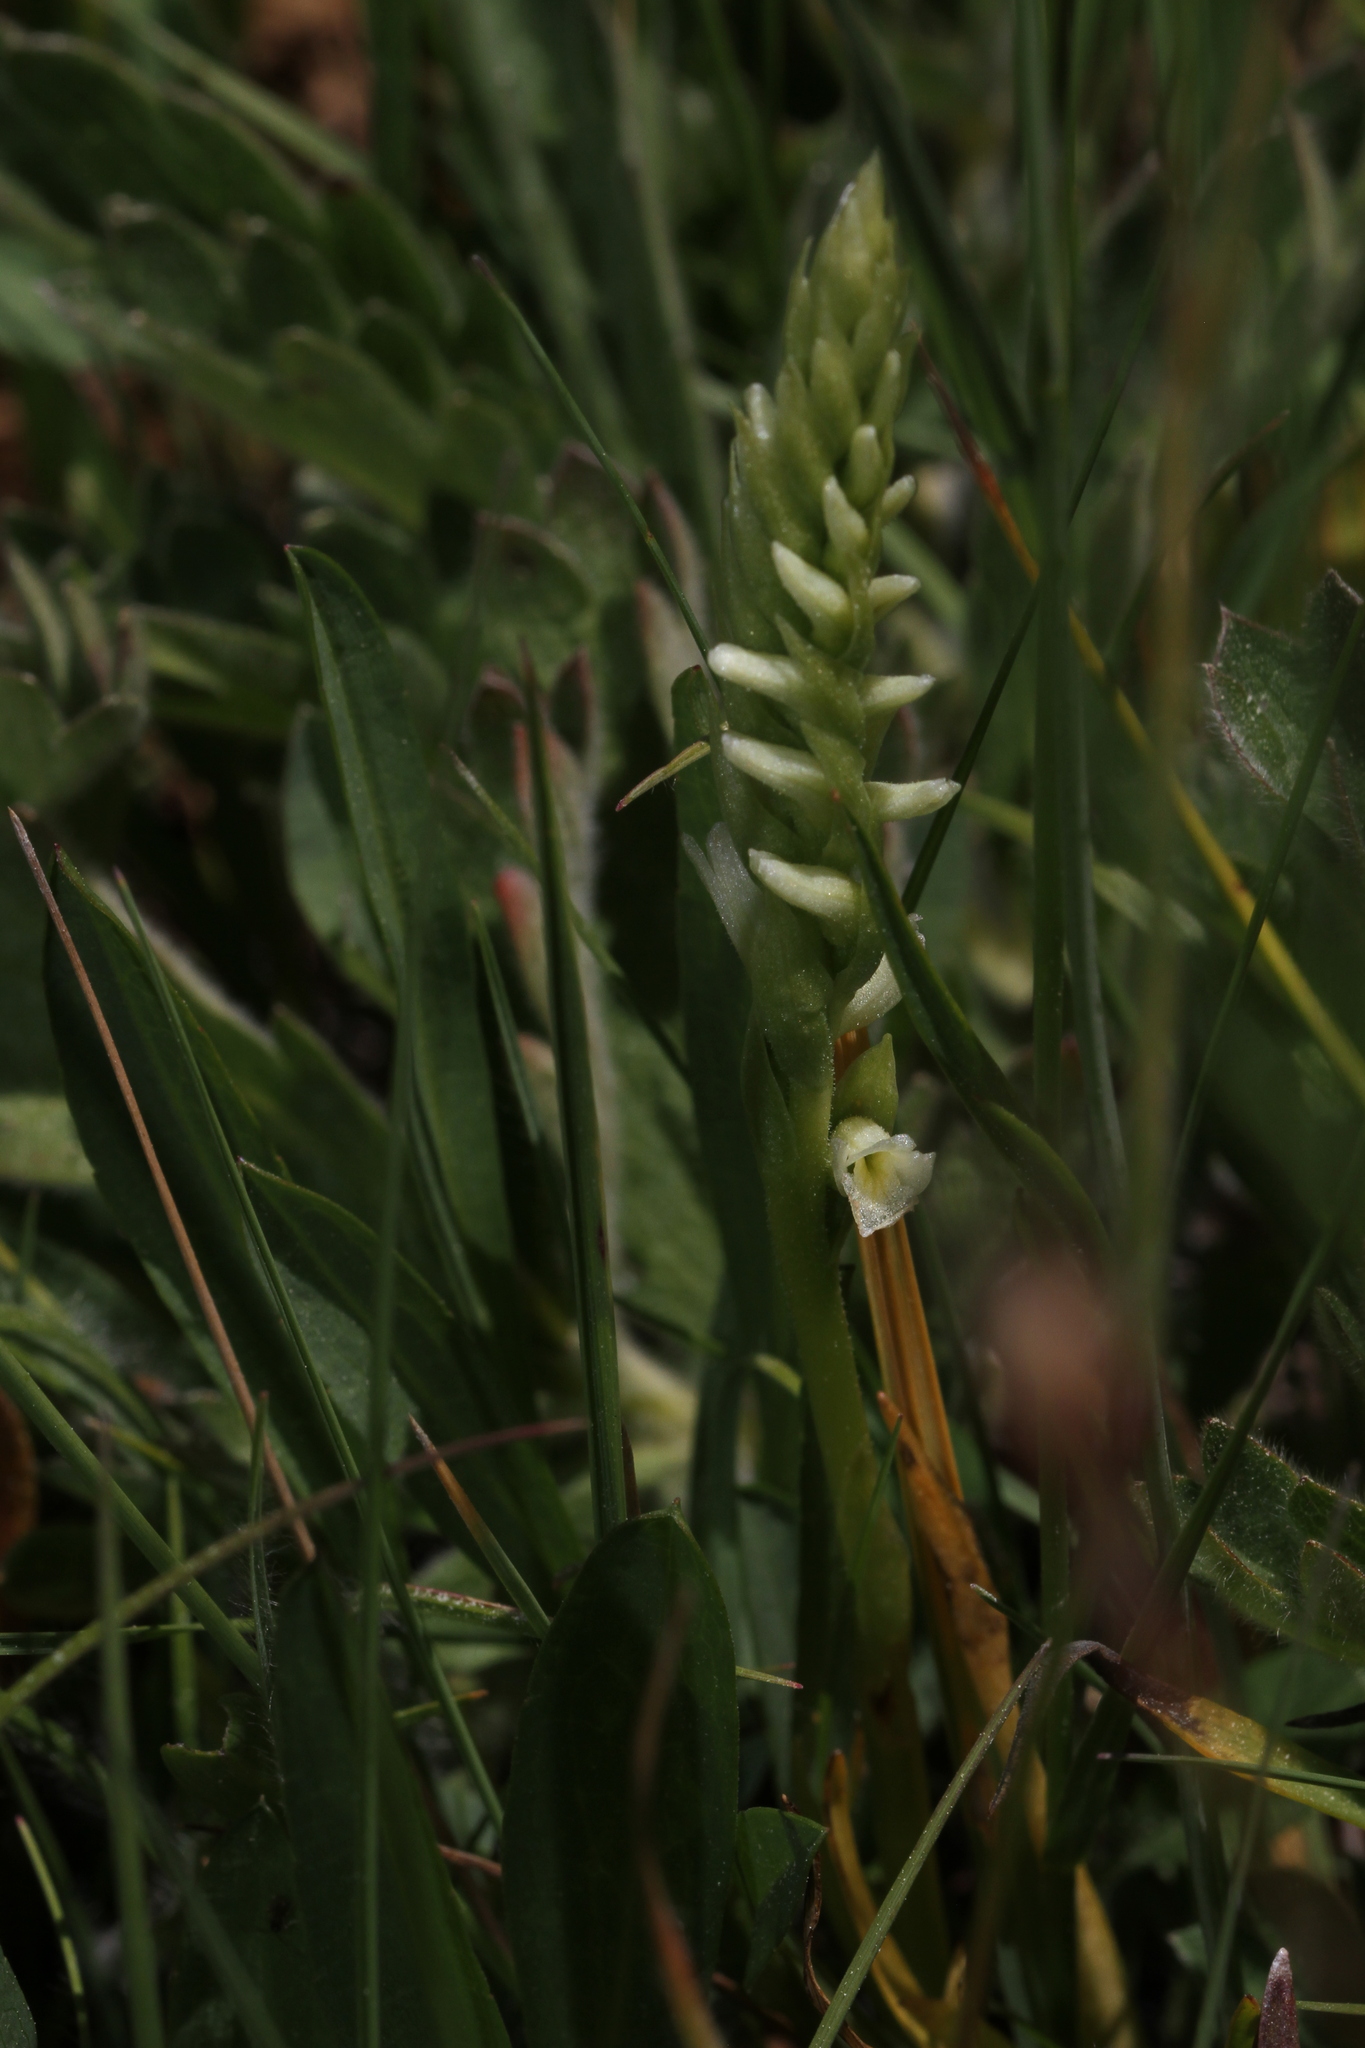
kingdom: Plantae
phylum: Tracheophyta
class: Liliopsida
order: Asparagales
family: Orchidaceae
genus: Spiranthes
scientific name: Spiranthes romanzoffiana
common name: Irish lady's-tresses
